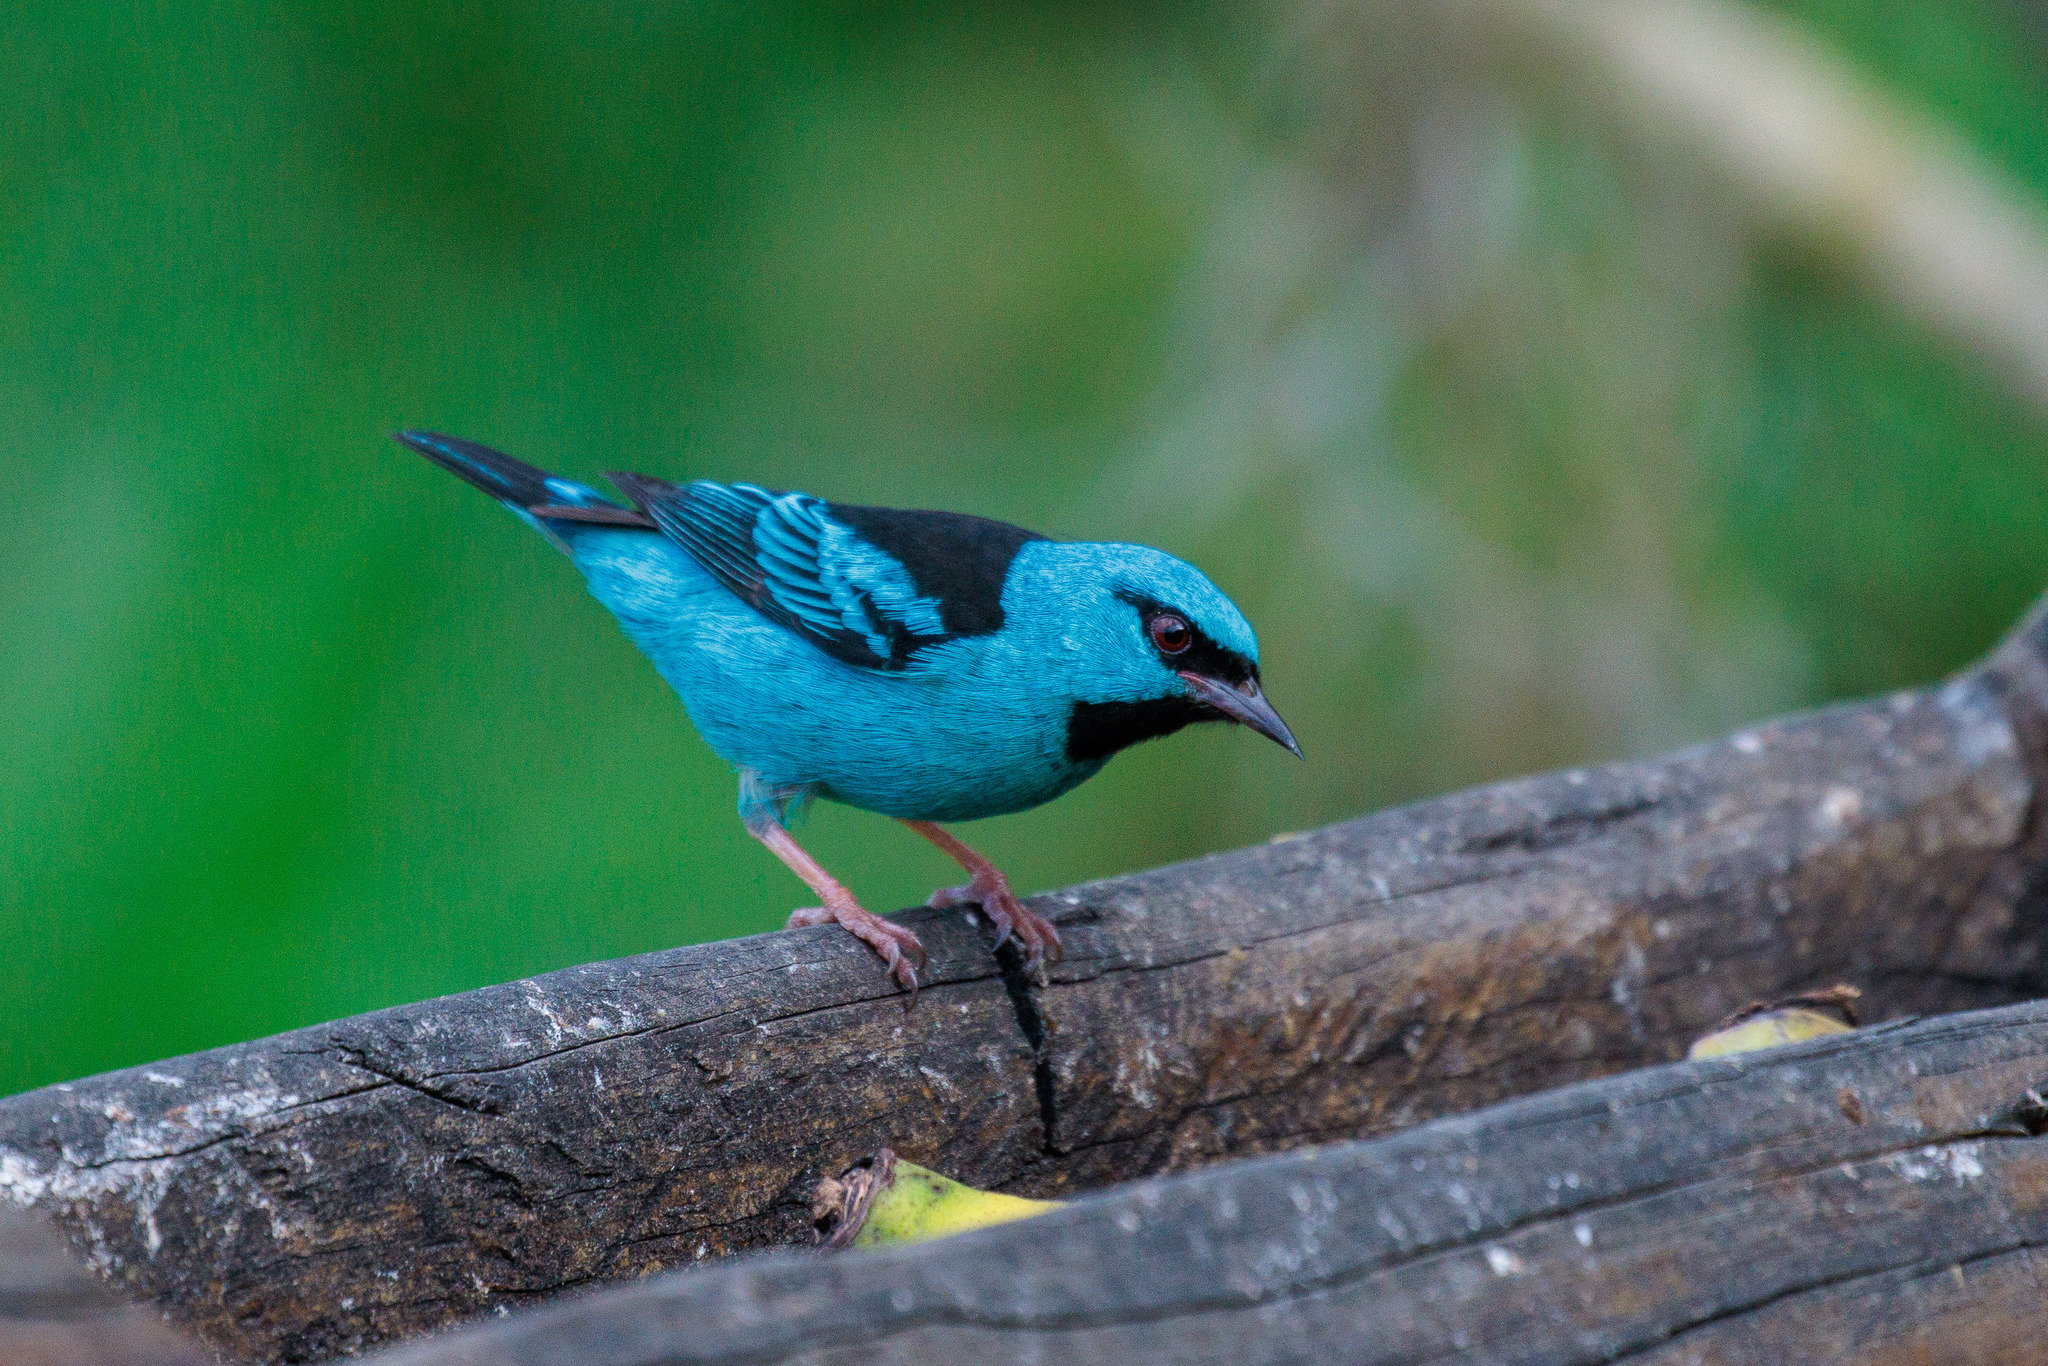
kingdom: Animalia
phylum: Chordata
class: Aves
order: Passeriformes
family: Thraupidae
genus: Dacnis
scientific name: Dacnis cayana
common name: Blue dacnis
